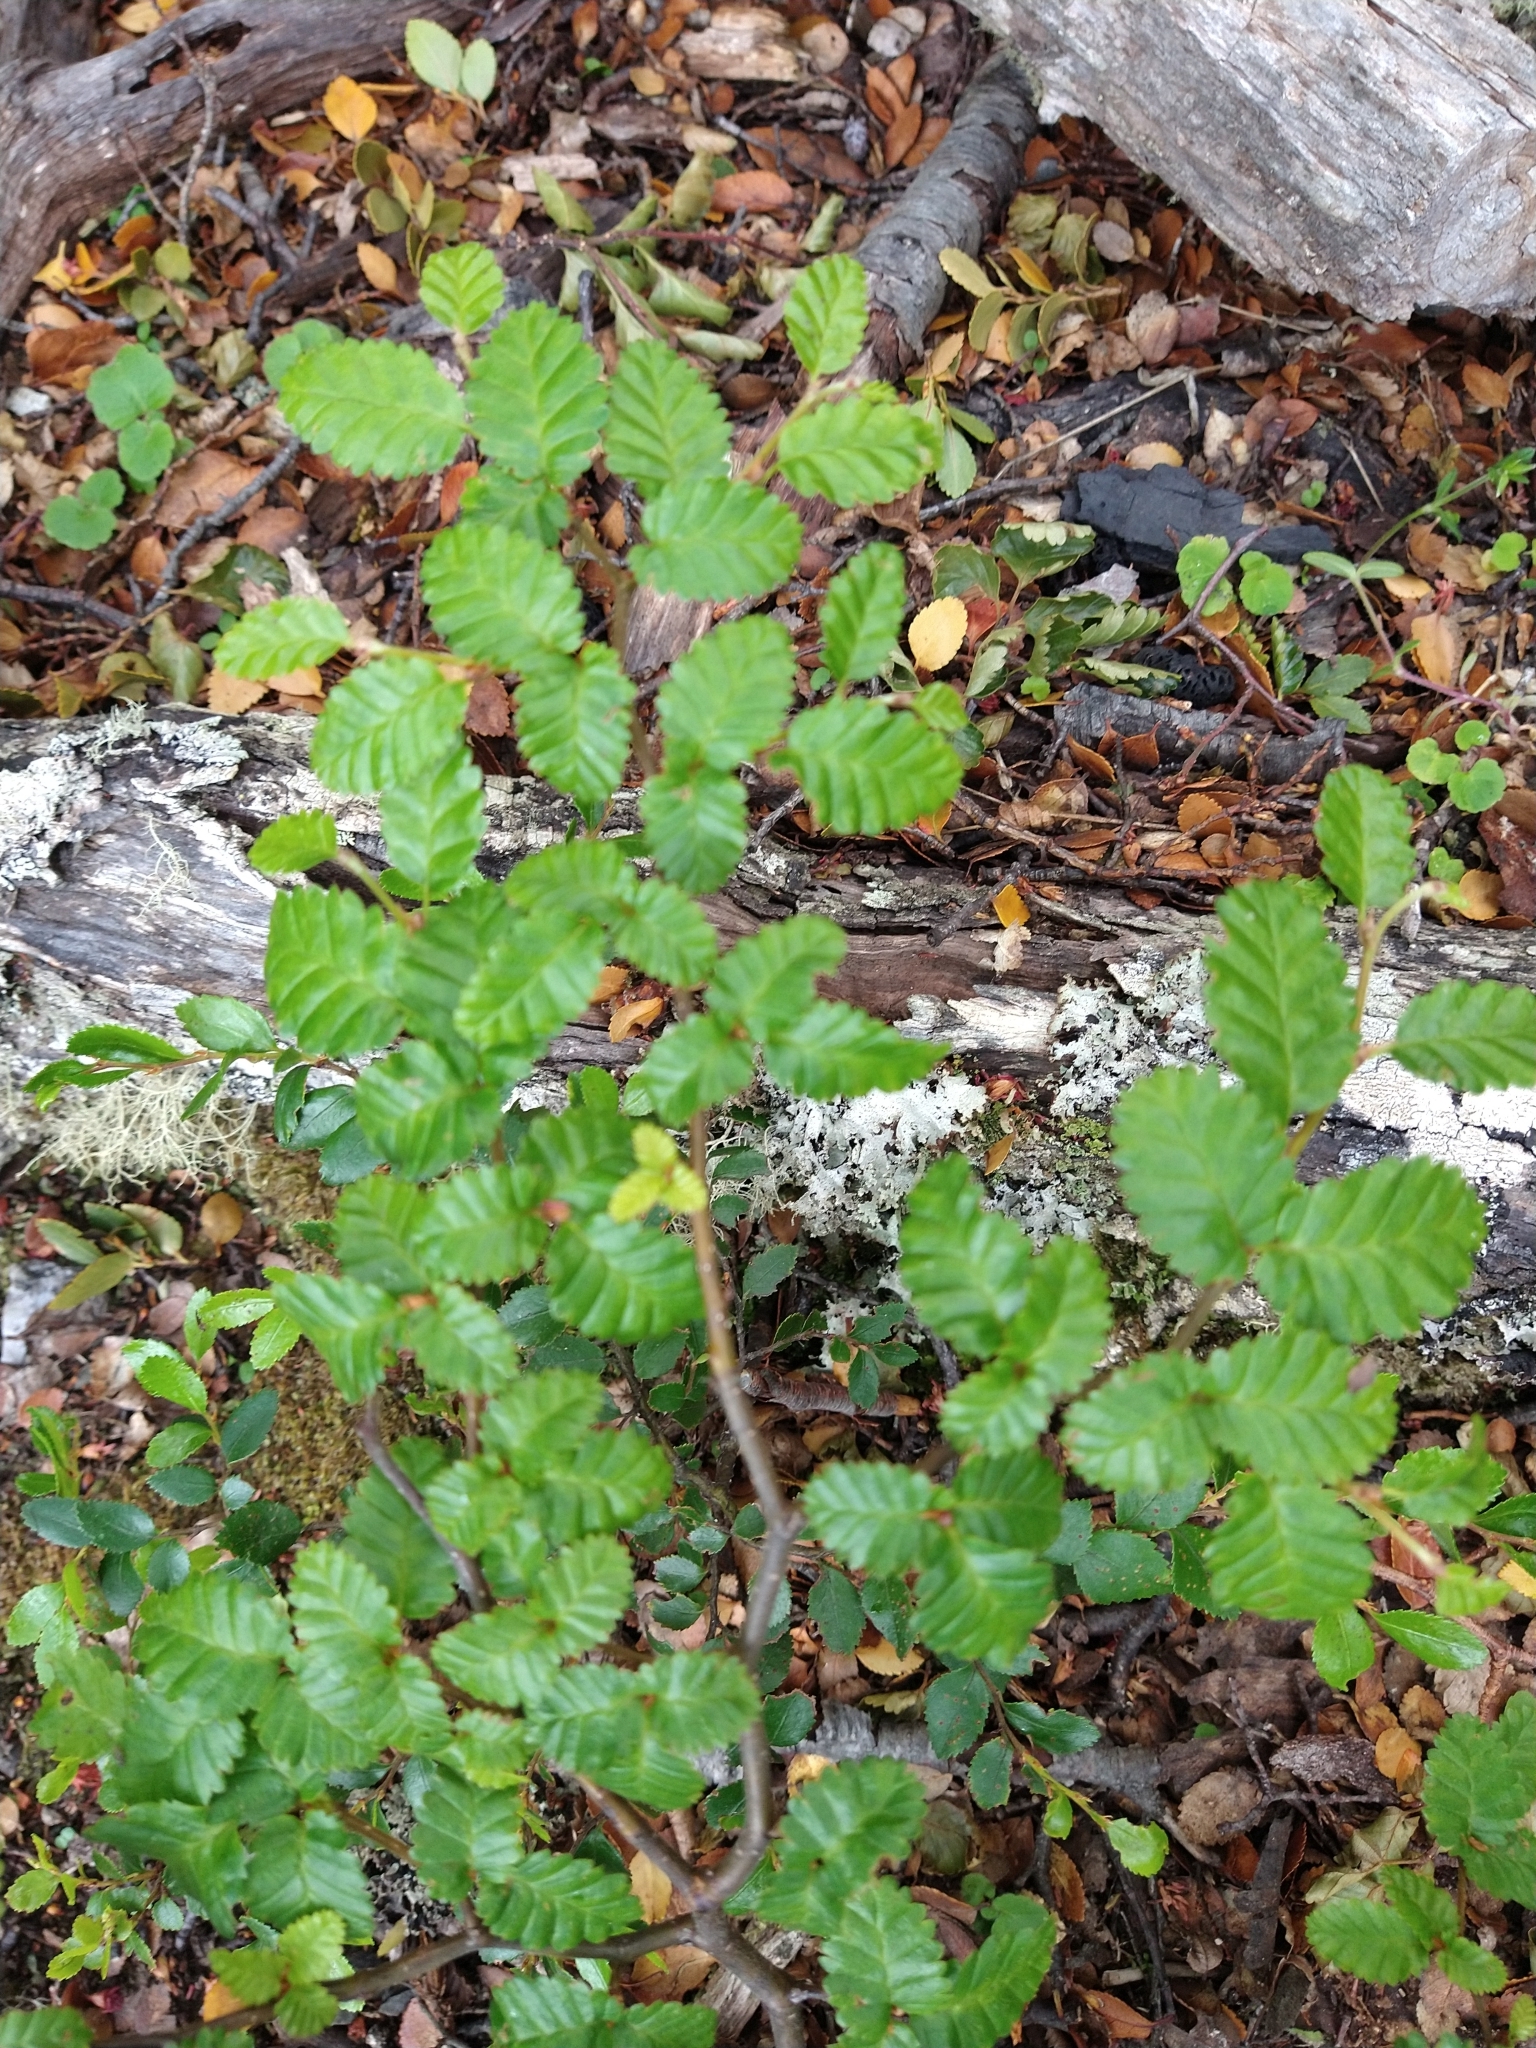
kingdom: Plantae
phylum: Tracheophyta
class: Magnoliopsida
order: Fagales
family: Nothofagaceae
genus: Nothofagus
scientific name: Nothofagus pumilio
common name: Lenga beech
